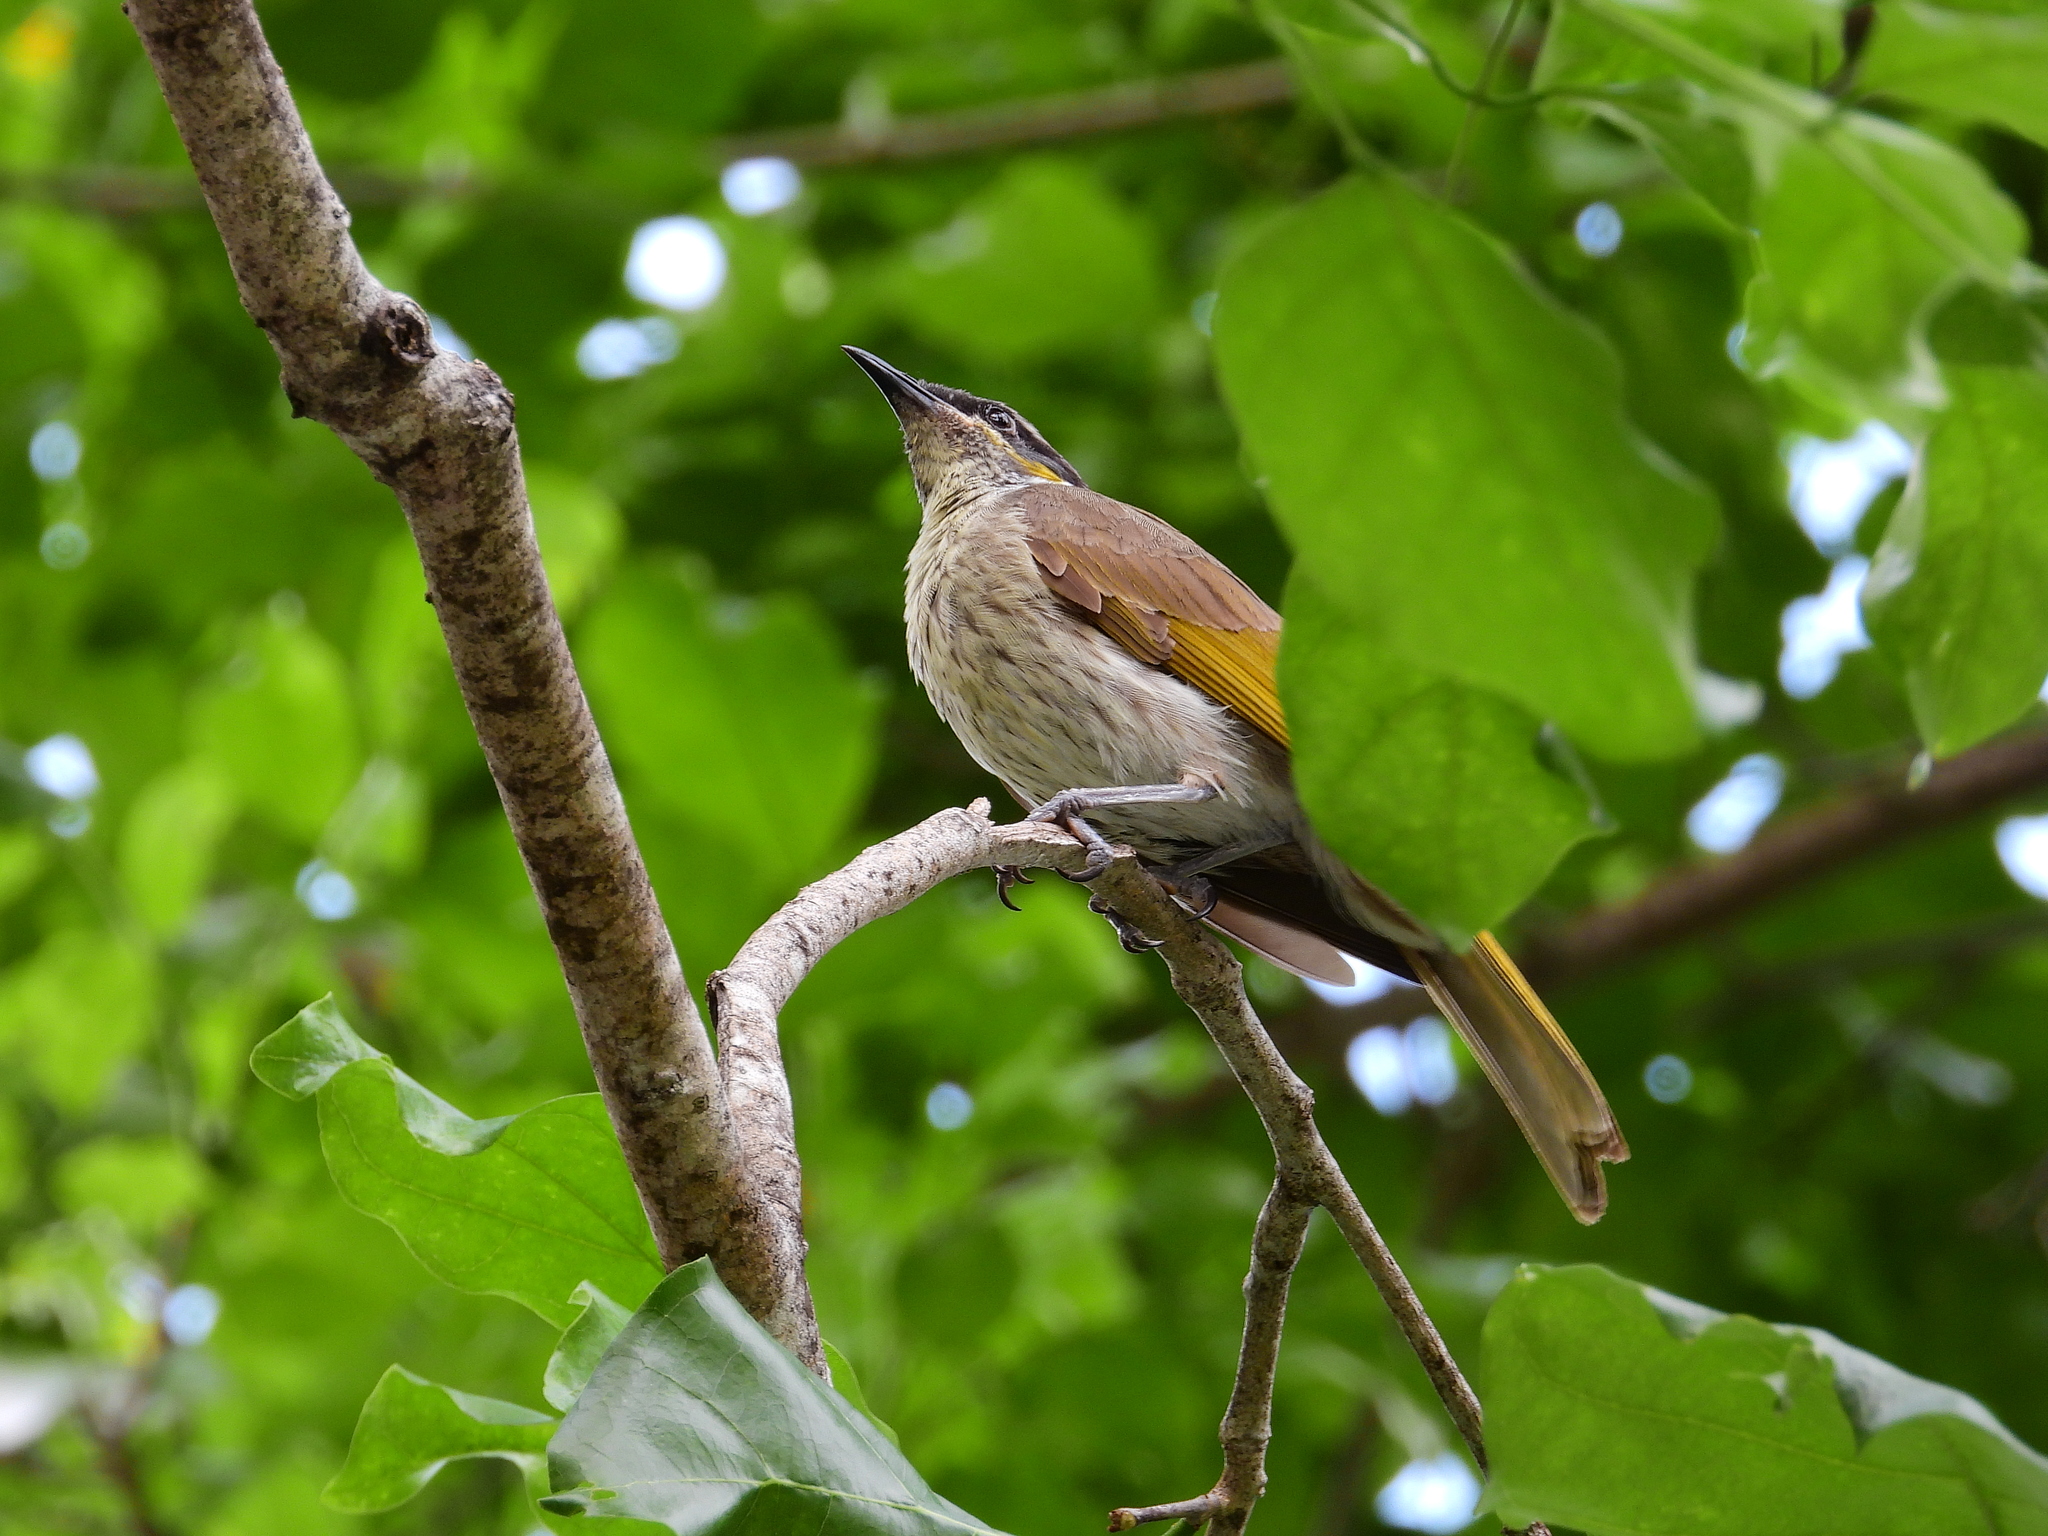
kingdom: Animalia
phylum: Chordata
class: Aves
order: Passeriformes
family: Meliphagidae
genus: Gavicalis
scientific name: Gavicalis versicolor
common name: Varied honeyeater
